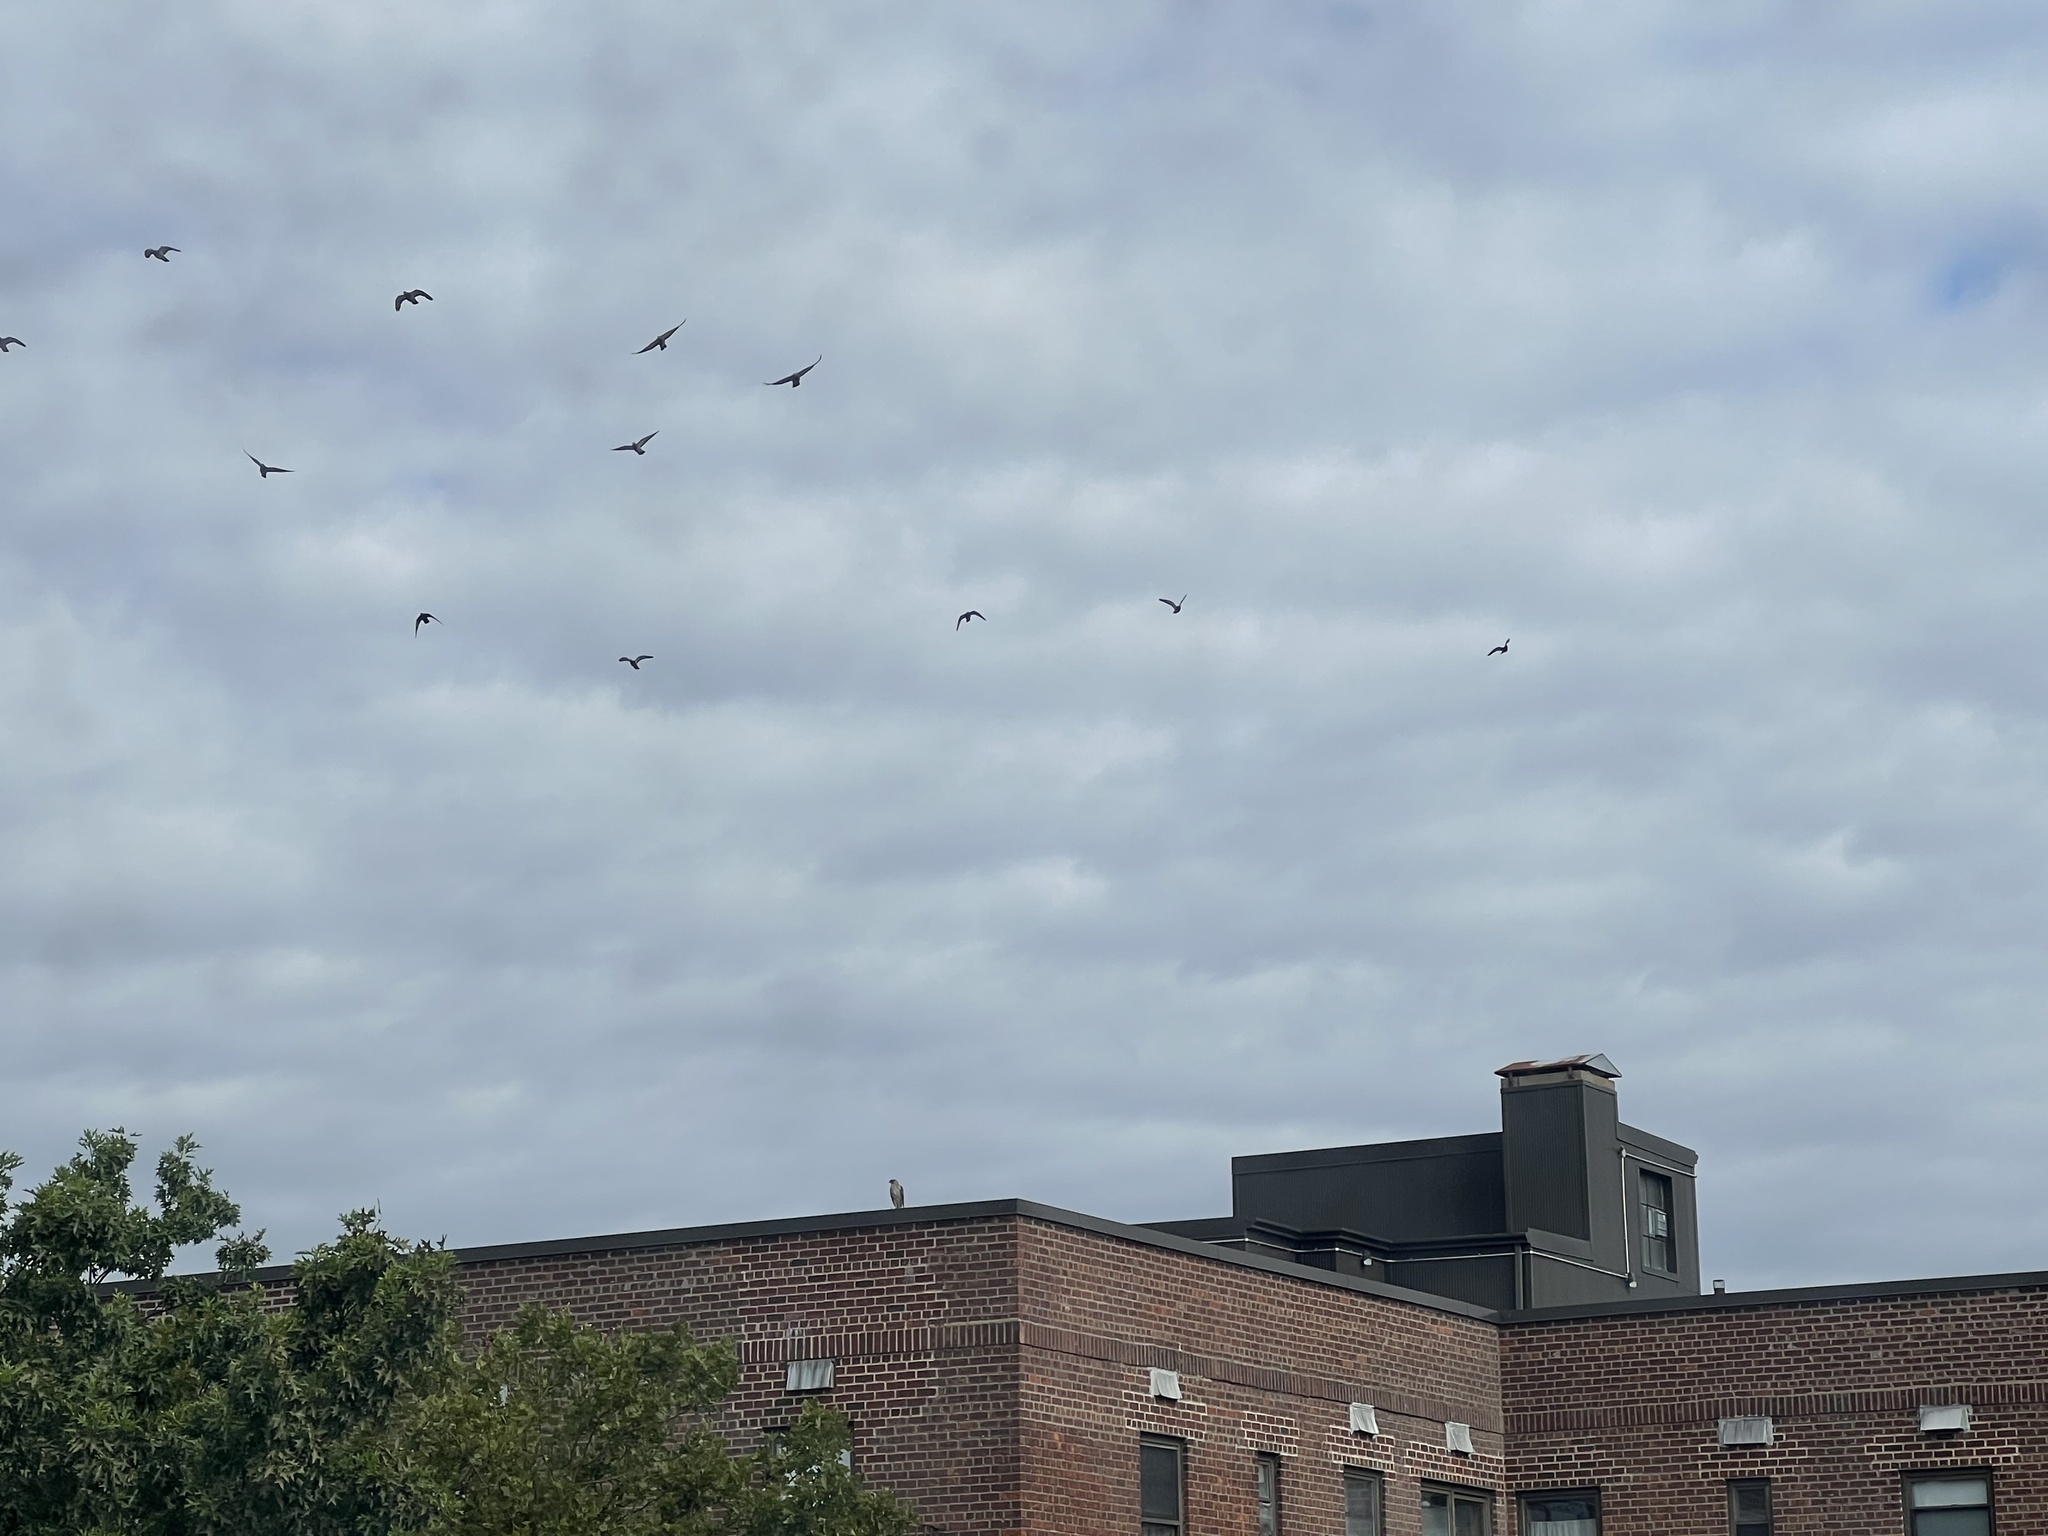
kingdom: Animalia
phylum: Chordata
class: Aves
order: Accipitriformes
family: Accipitridae
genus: Accipiter
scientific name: Accipiter cooperii
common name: Cooper's hawk
